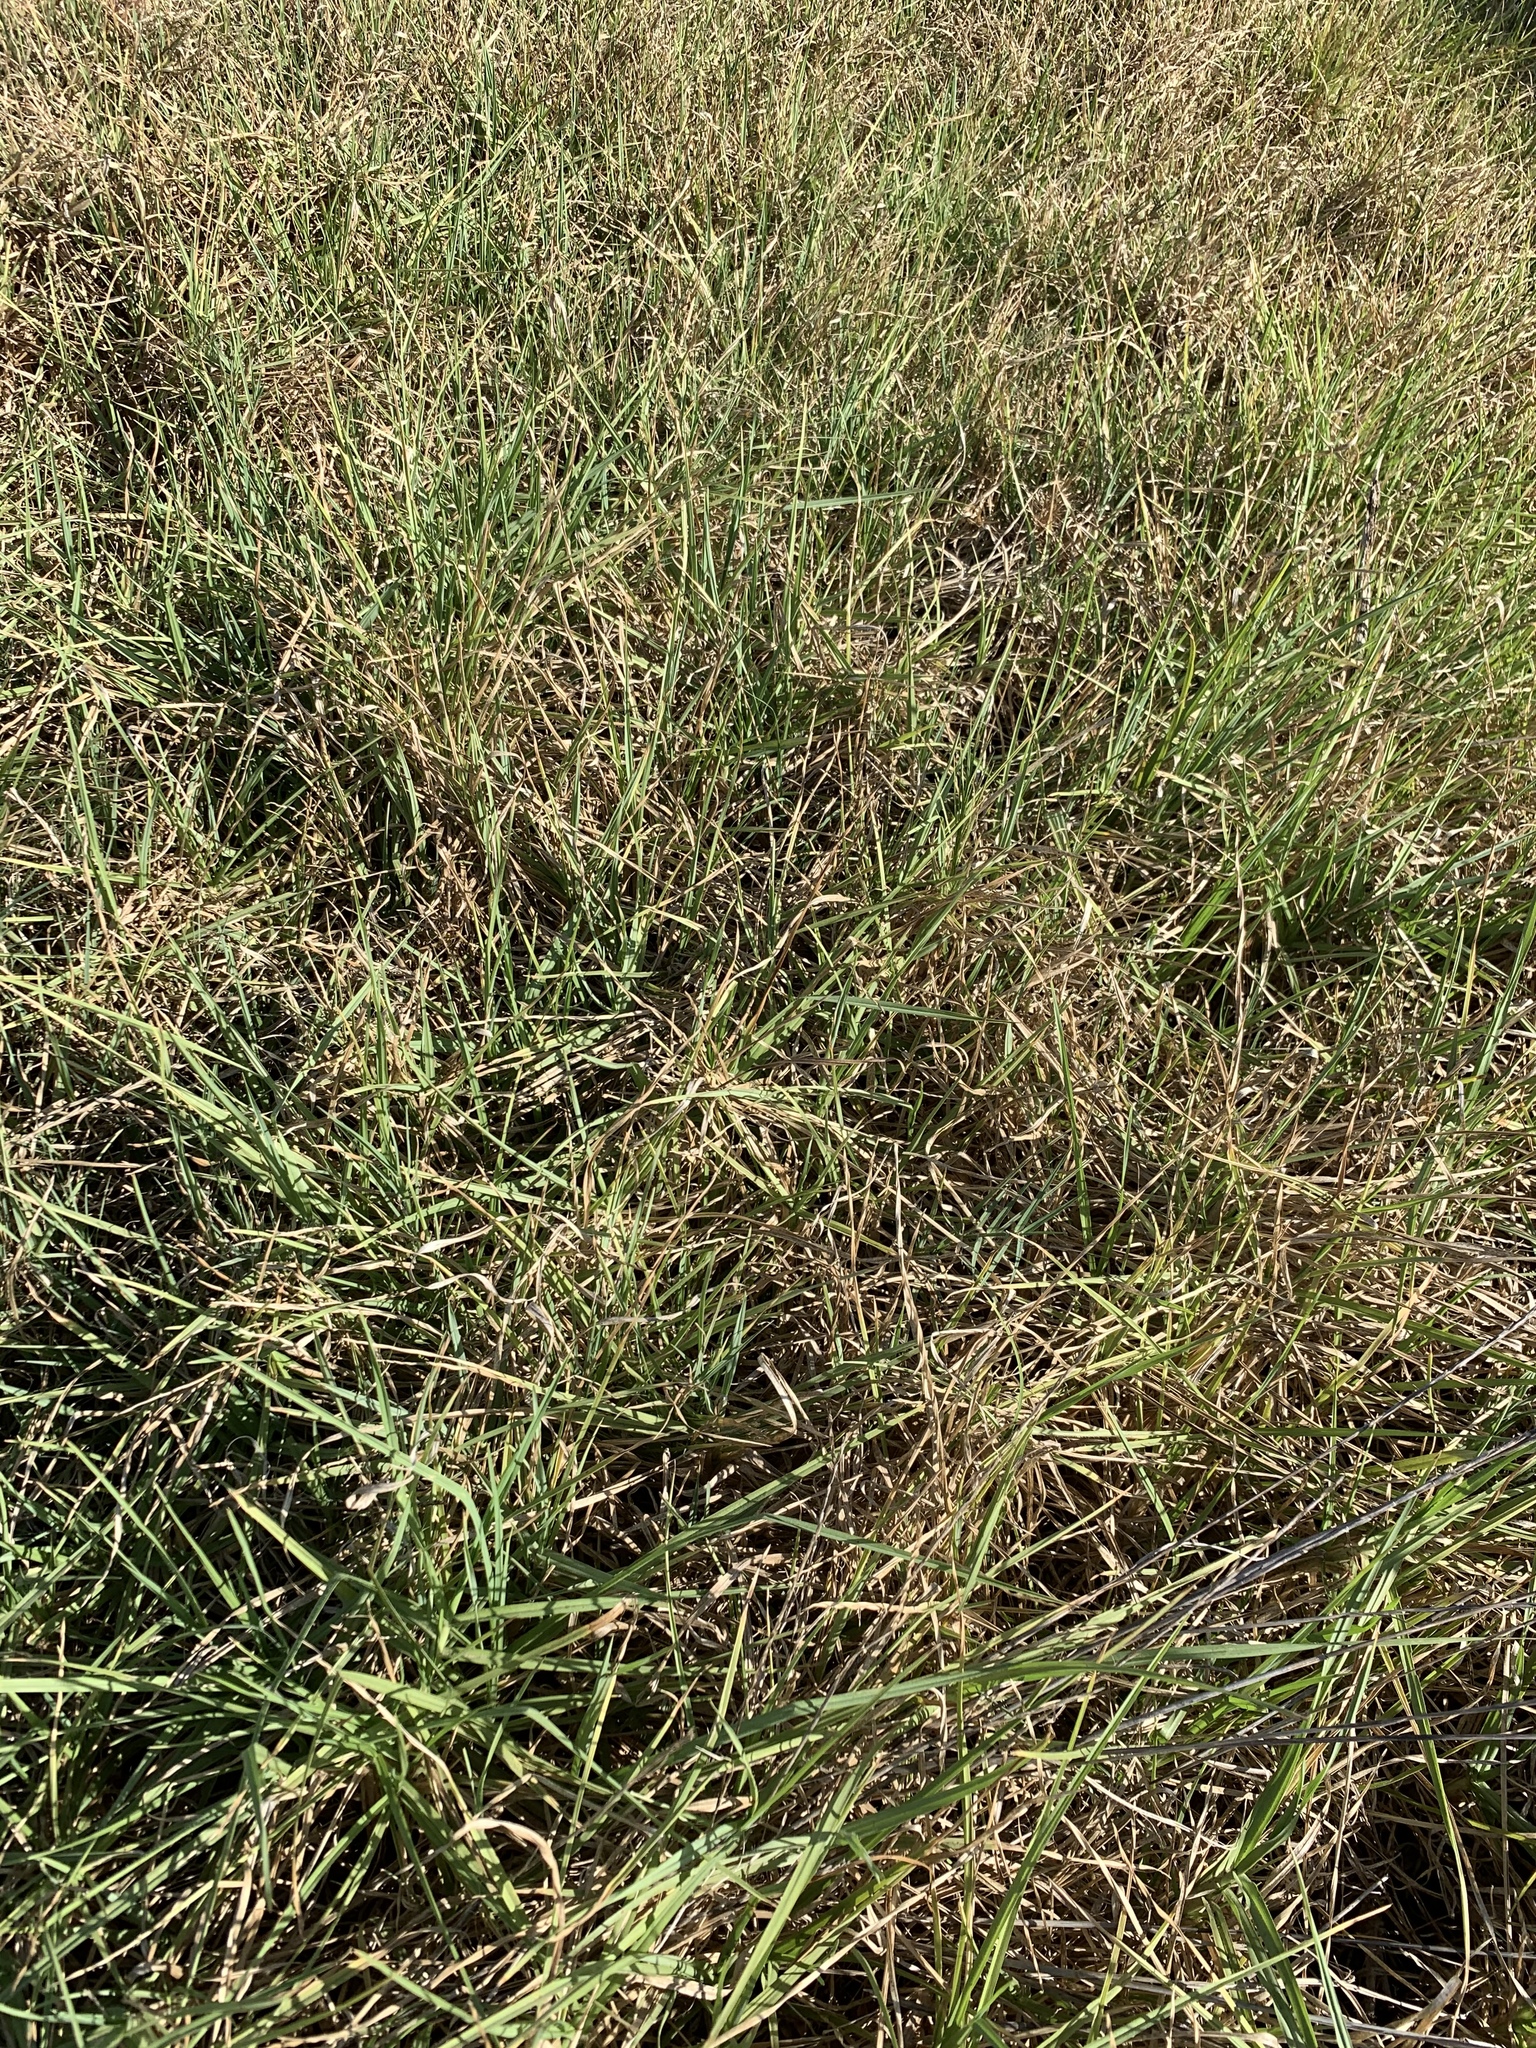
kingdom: Plantae
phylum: Tracheophyta
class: Liliopsida
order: Poales
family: Poaceae
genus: Cenchrus
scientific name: Cenchrus clandestinus
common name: Kikuyugrass
